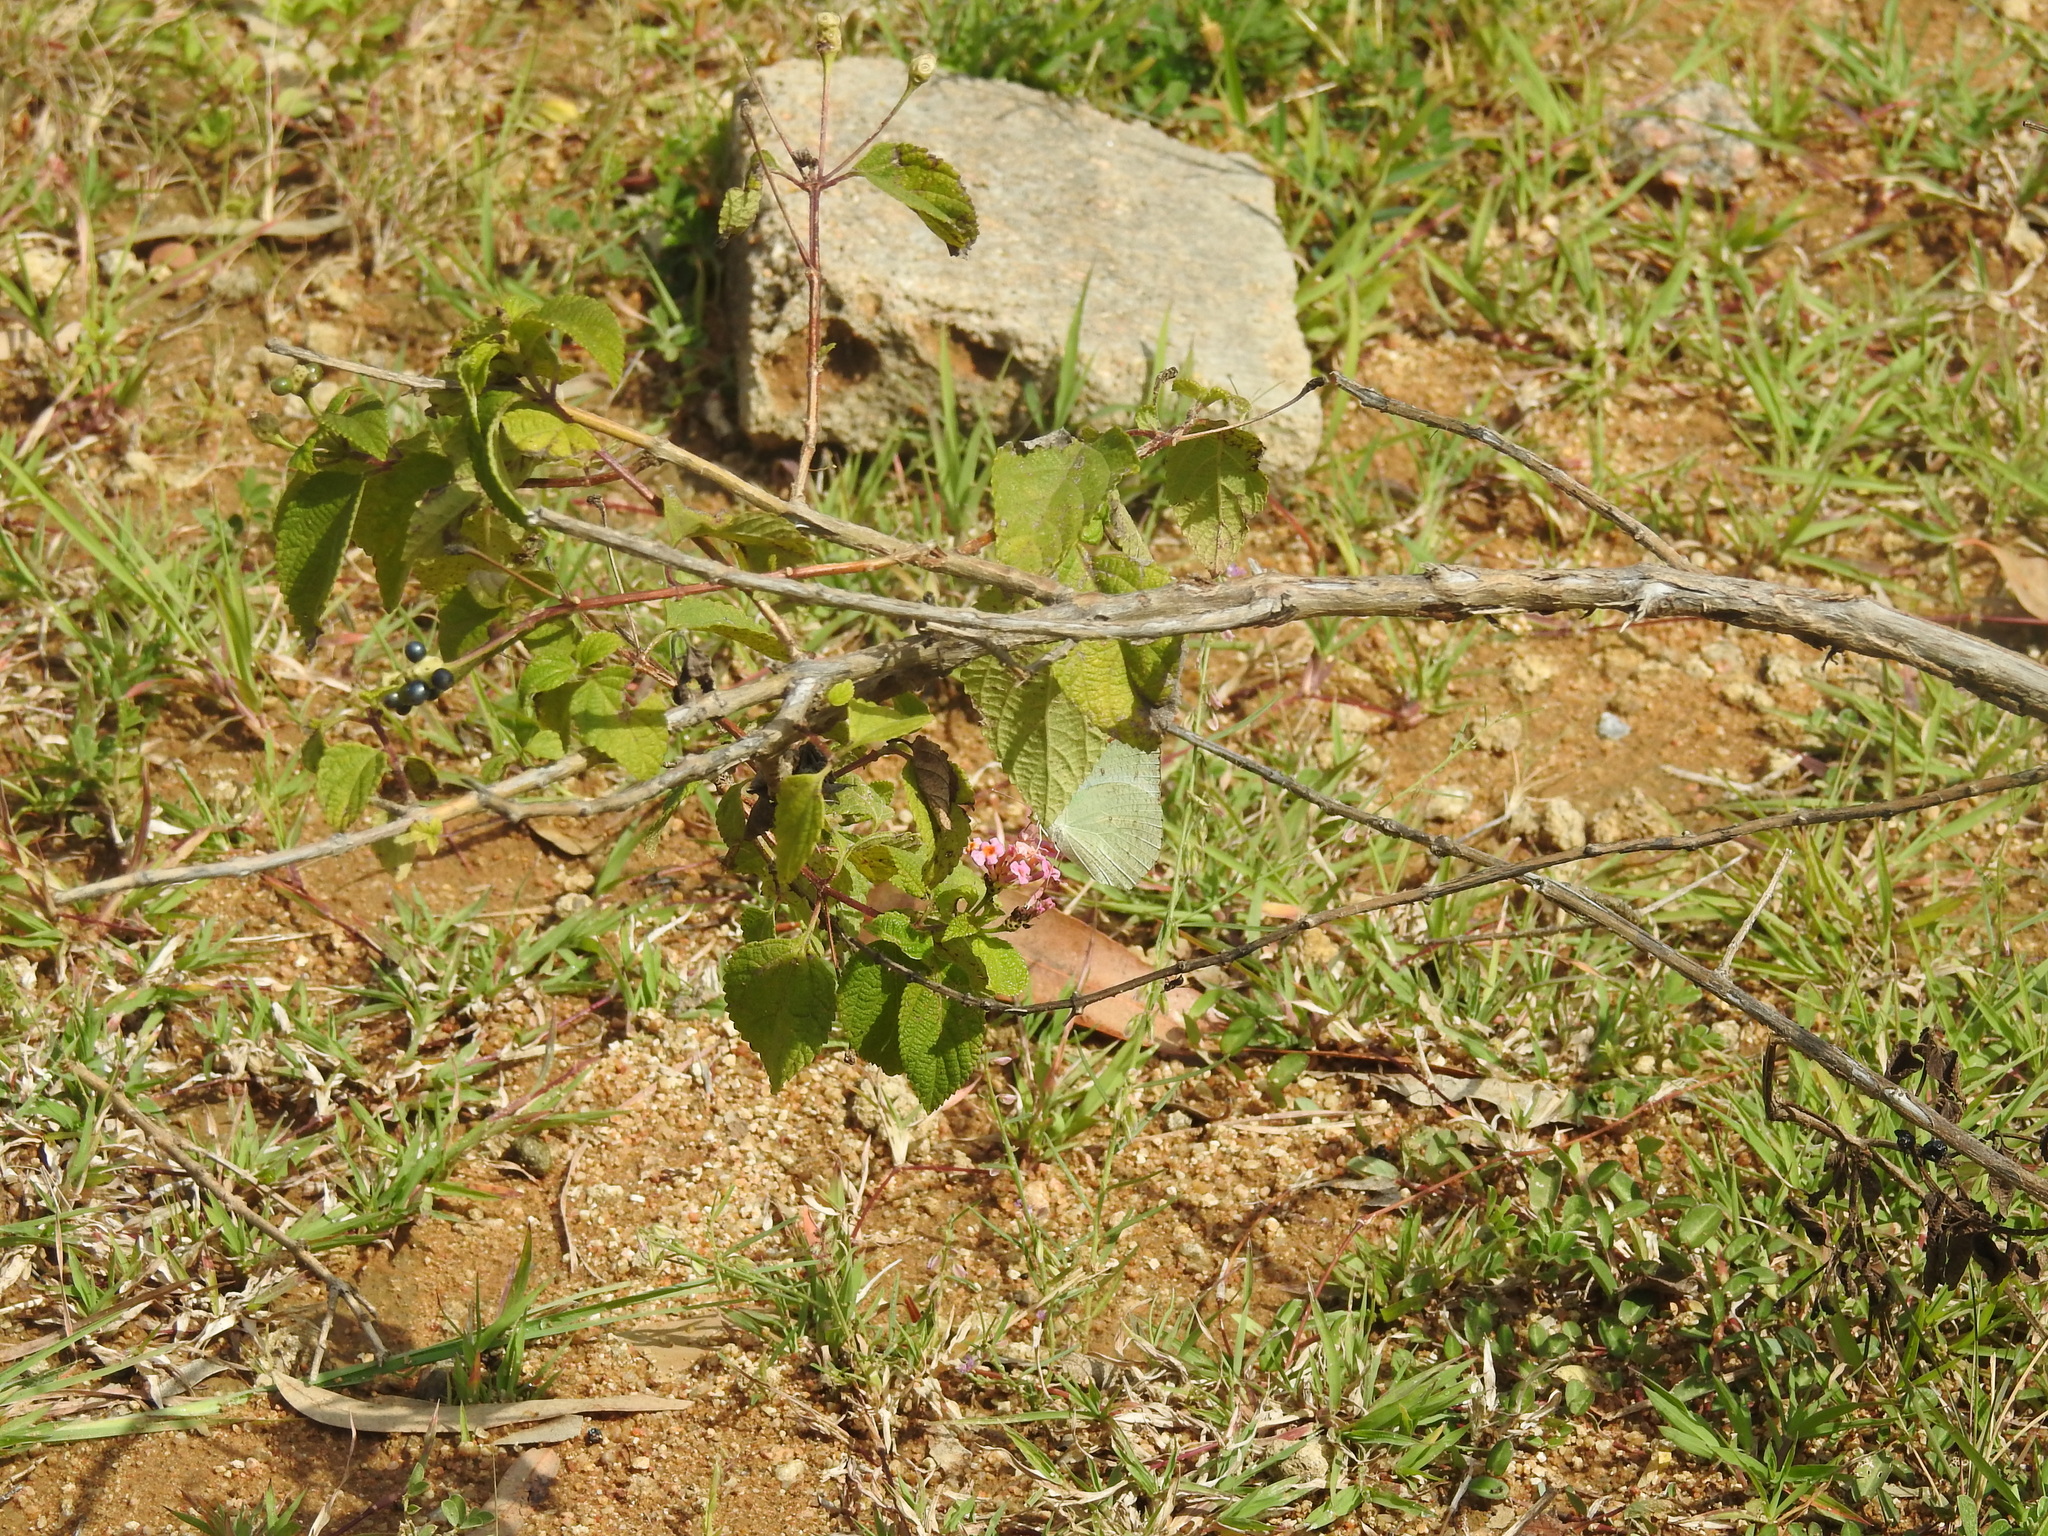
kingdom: Animalia
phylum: Arthropoda
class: Insecta
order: Lepidoptera
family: Pieridae
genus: Catopsilia
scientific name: Catopsilia pyranthe
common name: Mottled emigrant
